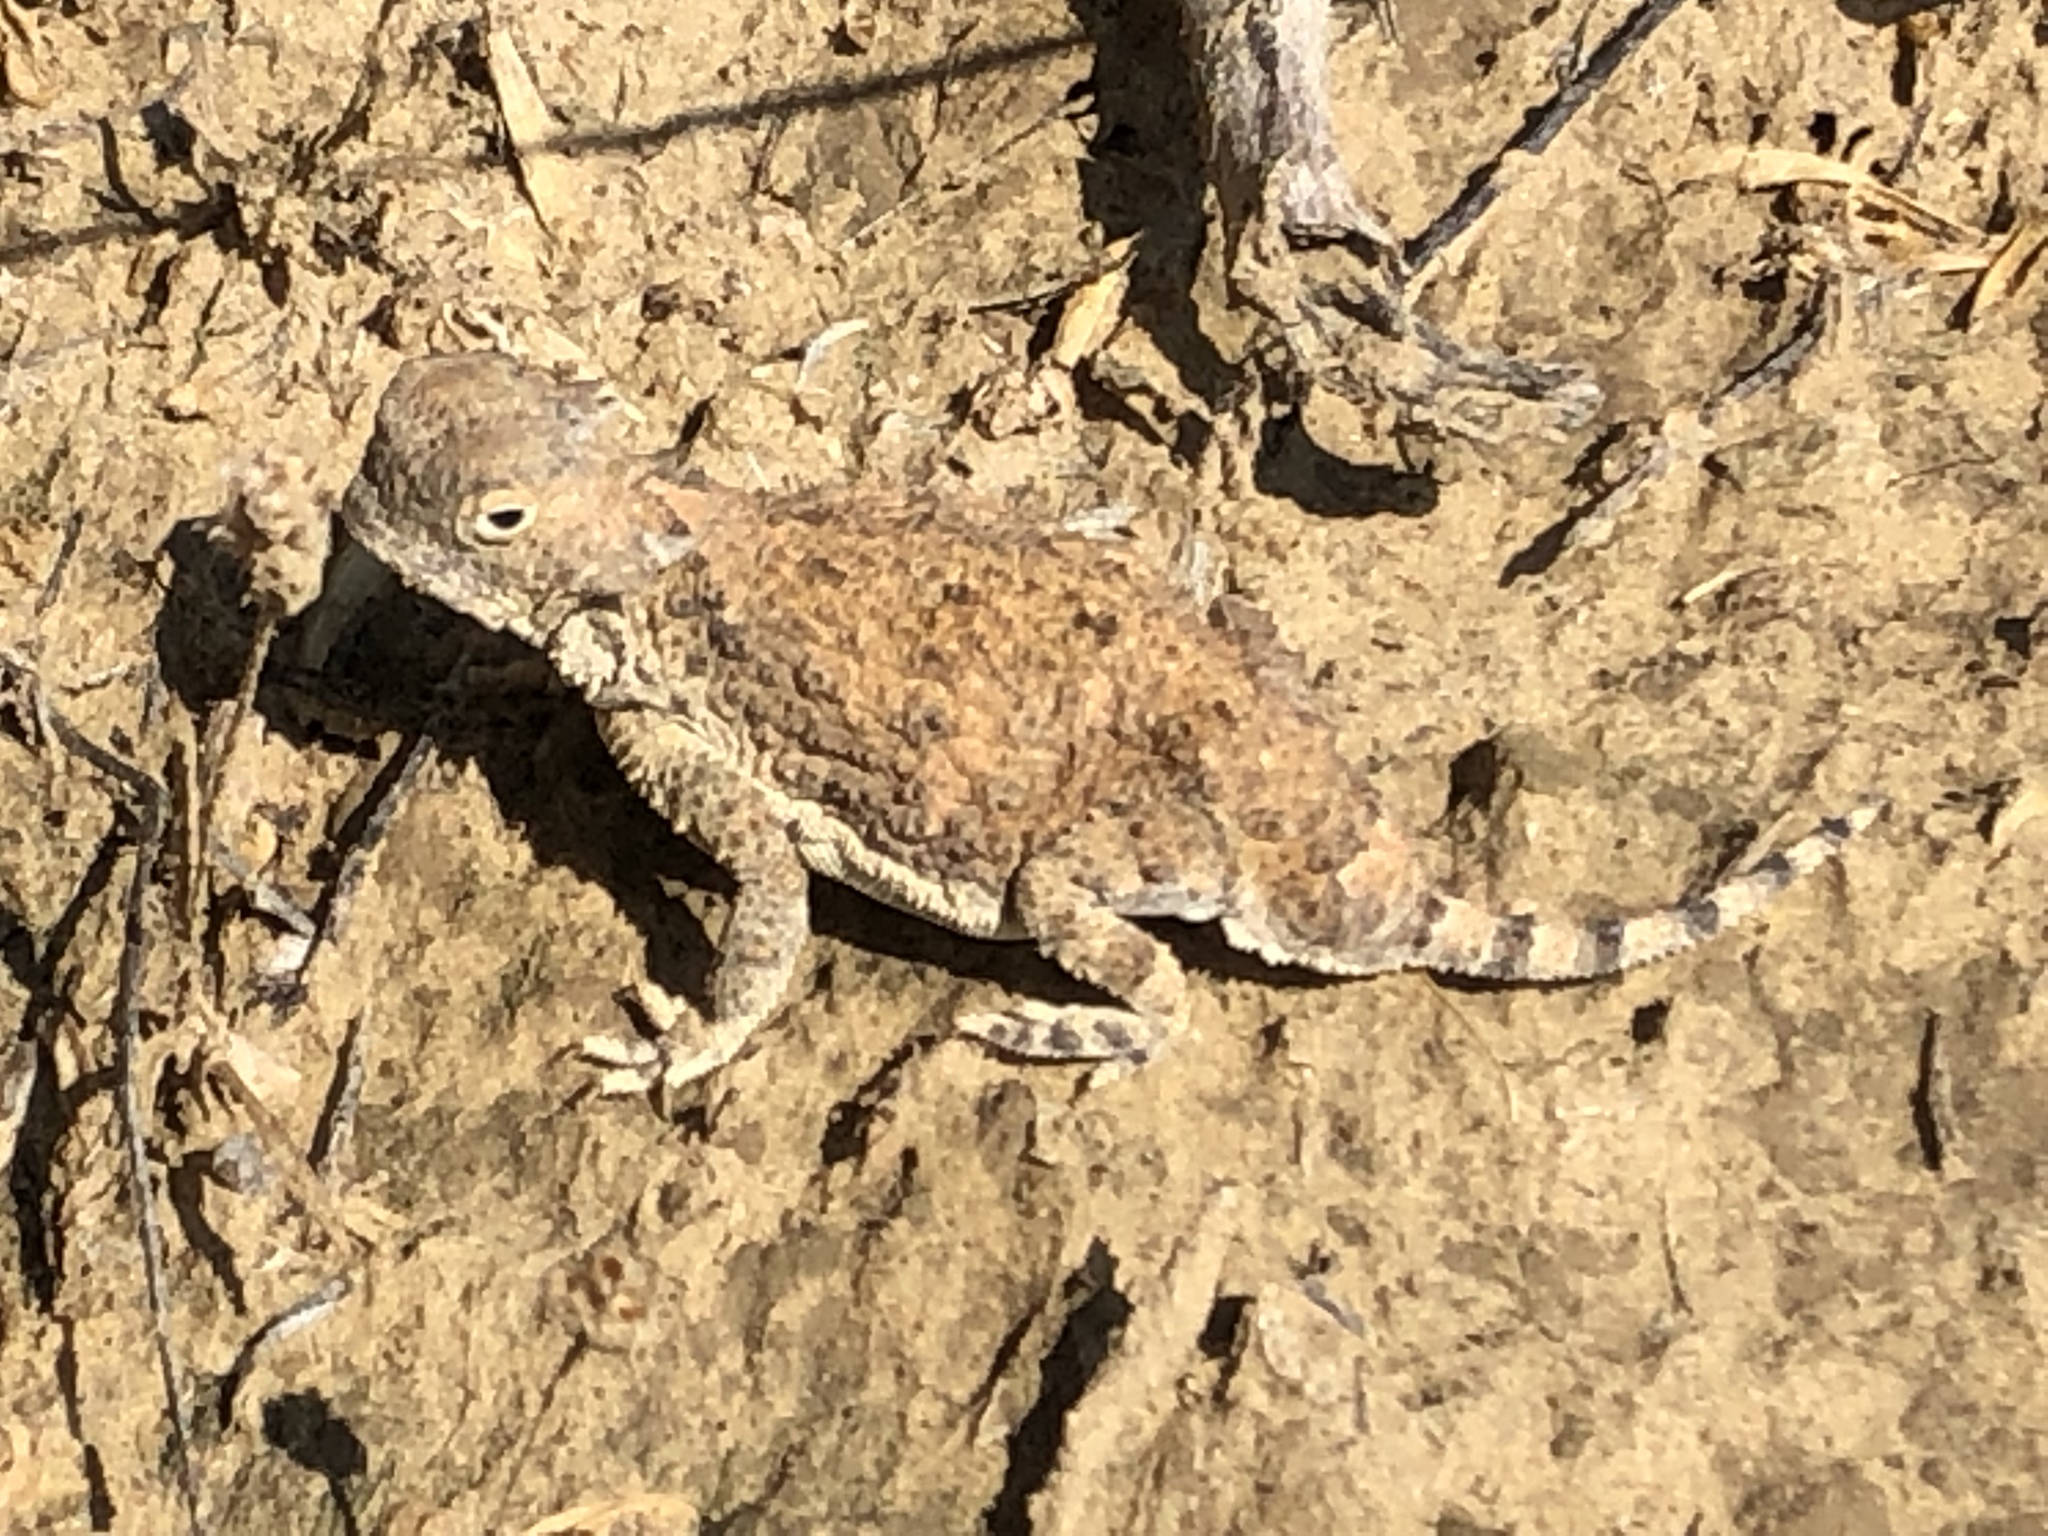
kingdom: Animalia
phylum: Chordata
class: Squamata
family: Phrynosomatidae
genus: Phrynosoma
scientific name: Phrynosoma modestum
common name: Roundtail horned lizard
